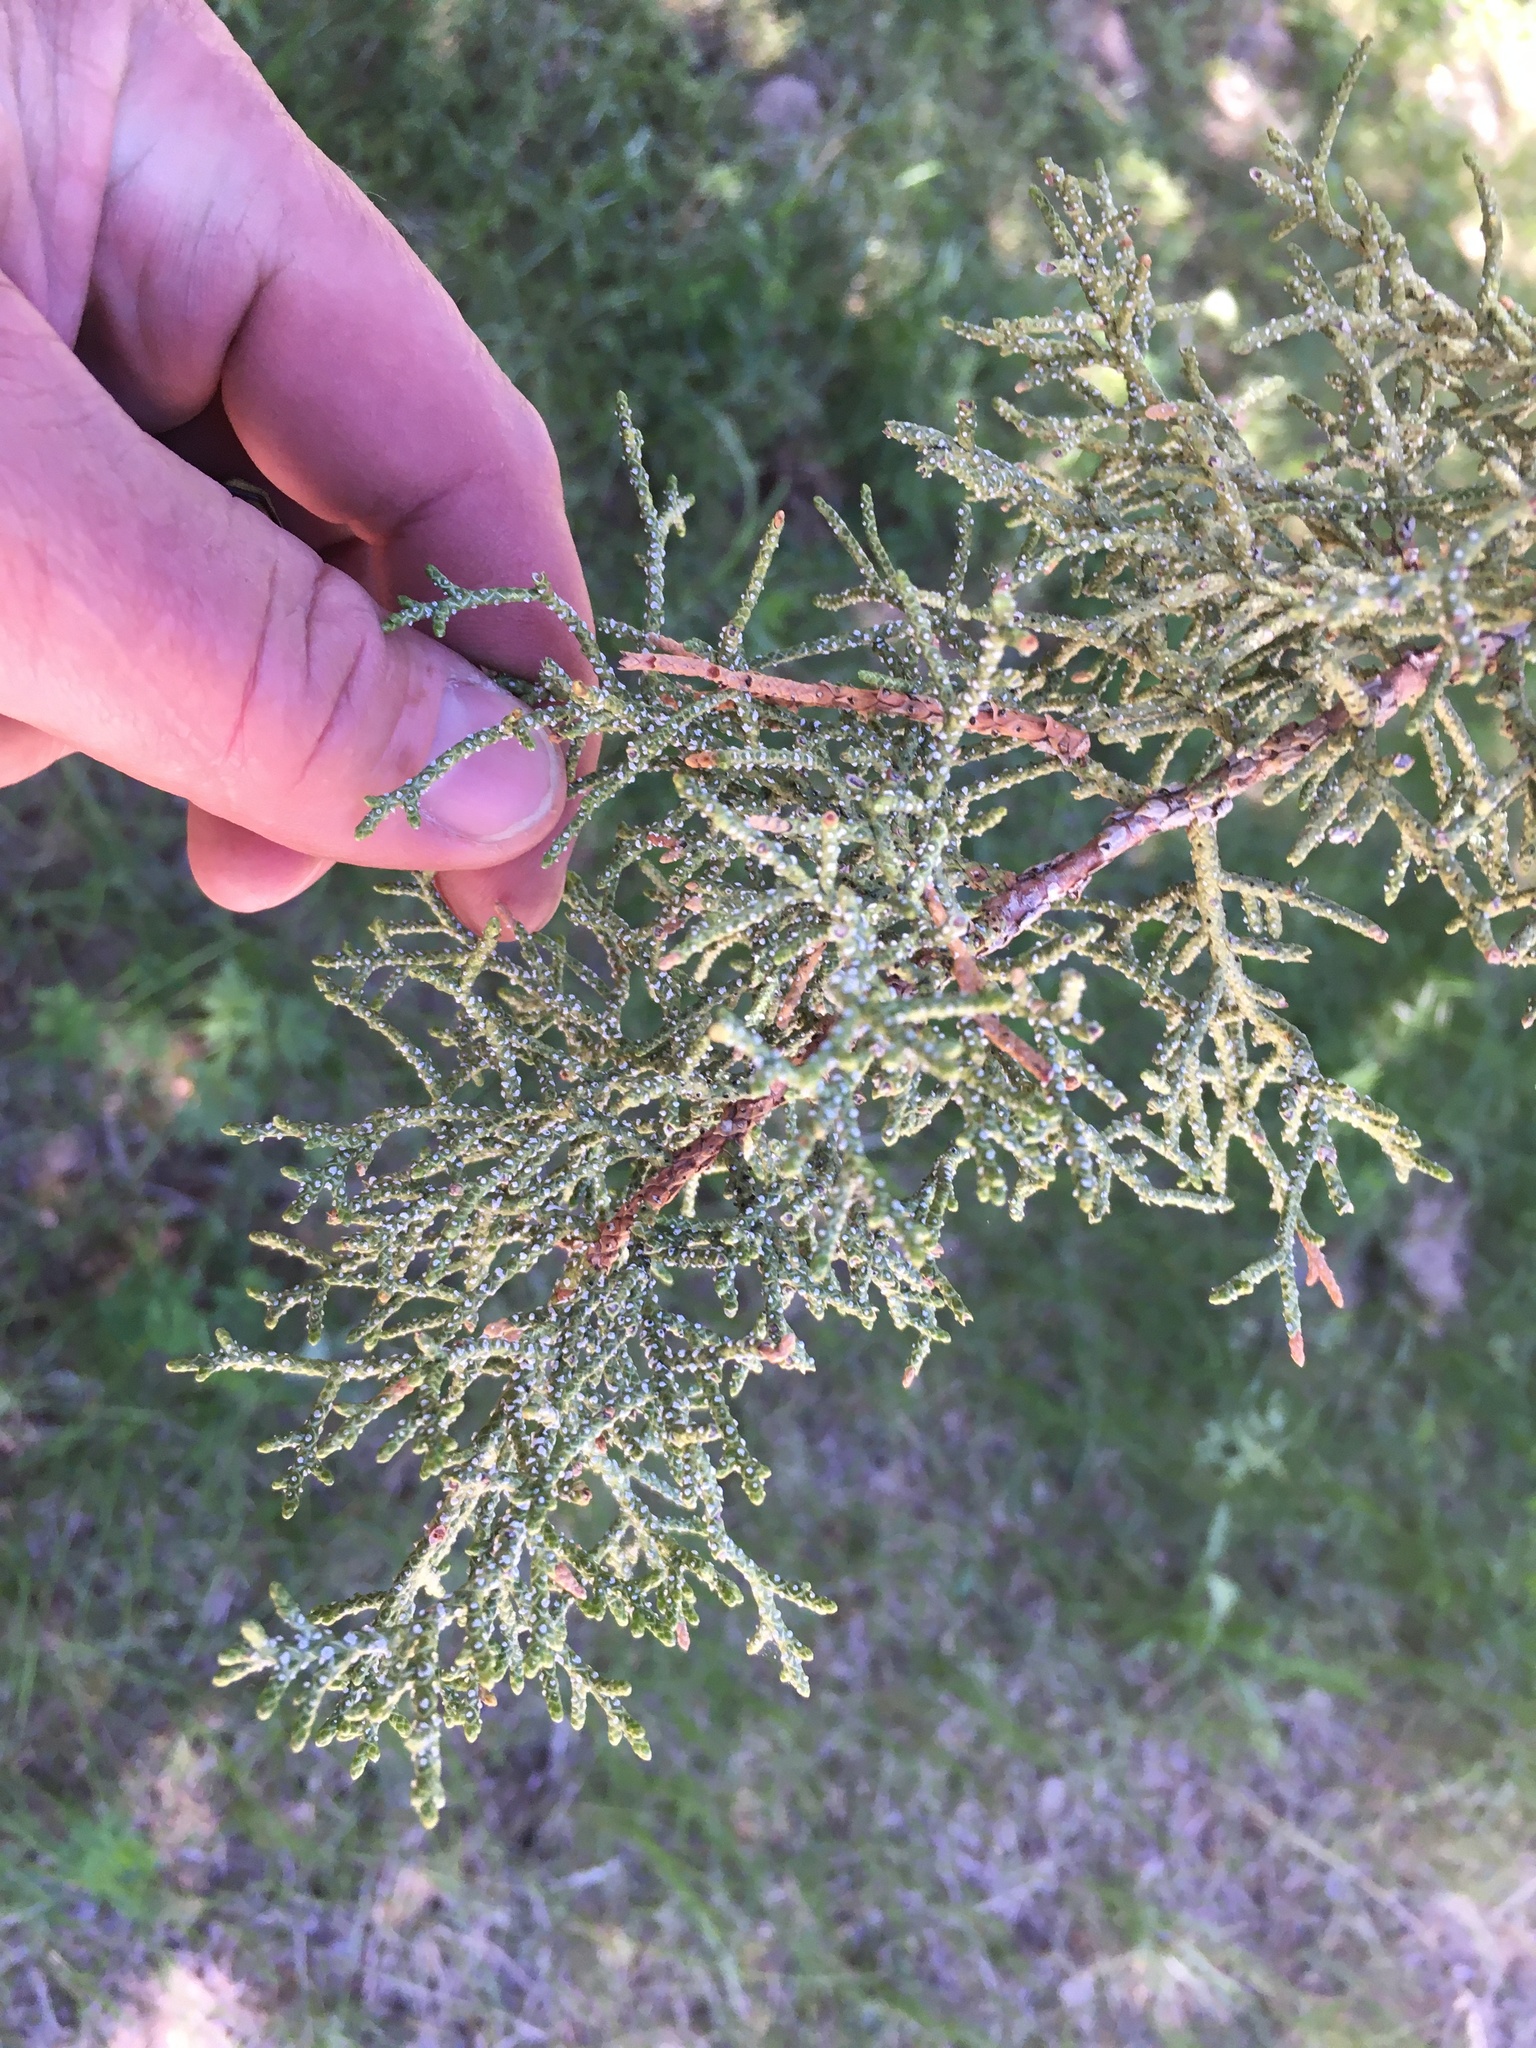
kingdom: Plantae
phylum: Tracheophyta
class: Pinopsida
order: Pinales
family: Cupressaceae
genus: Juniperus
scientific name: Juniperus occidentalis
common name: Western juniper
